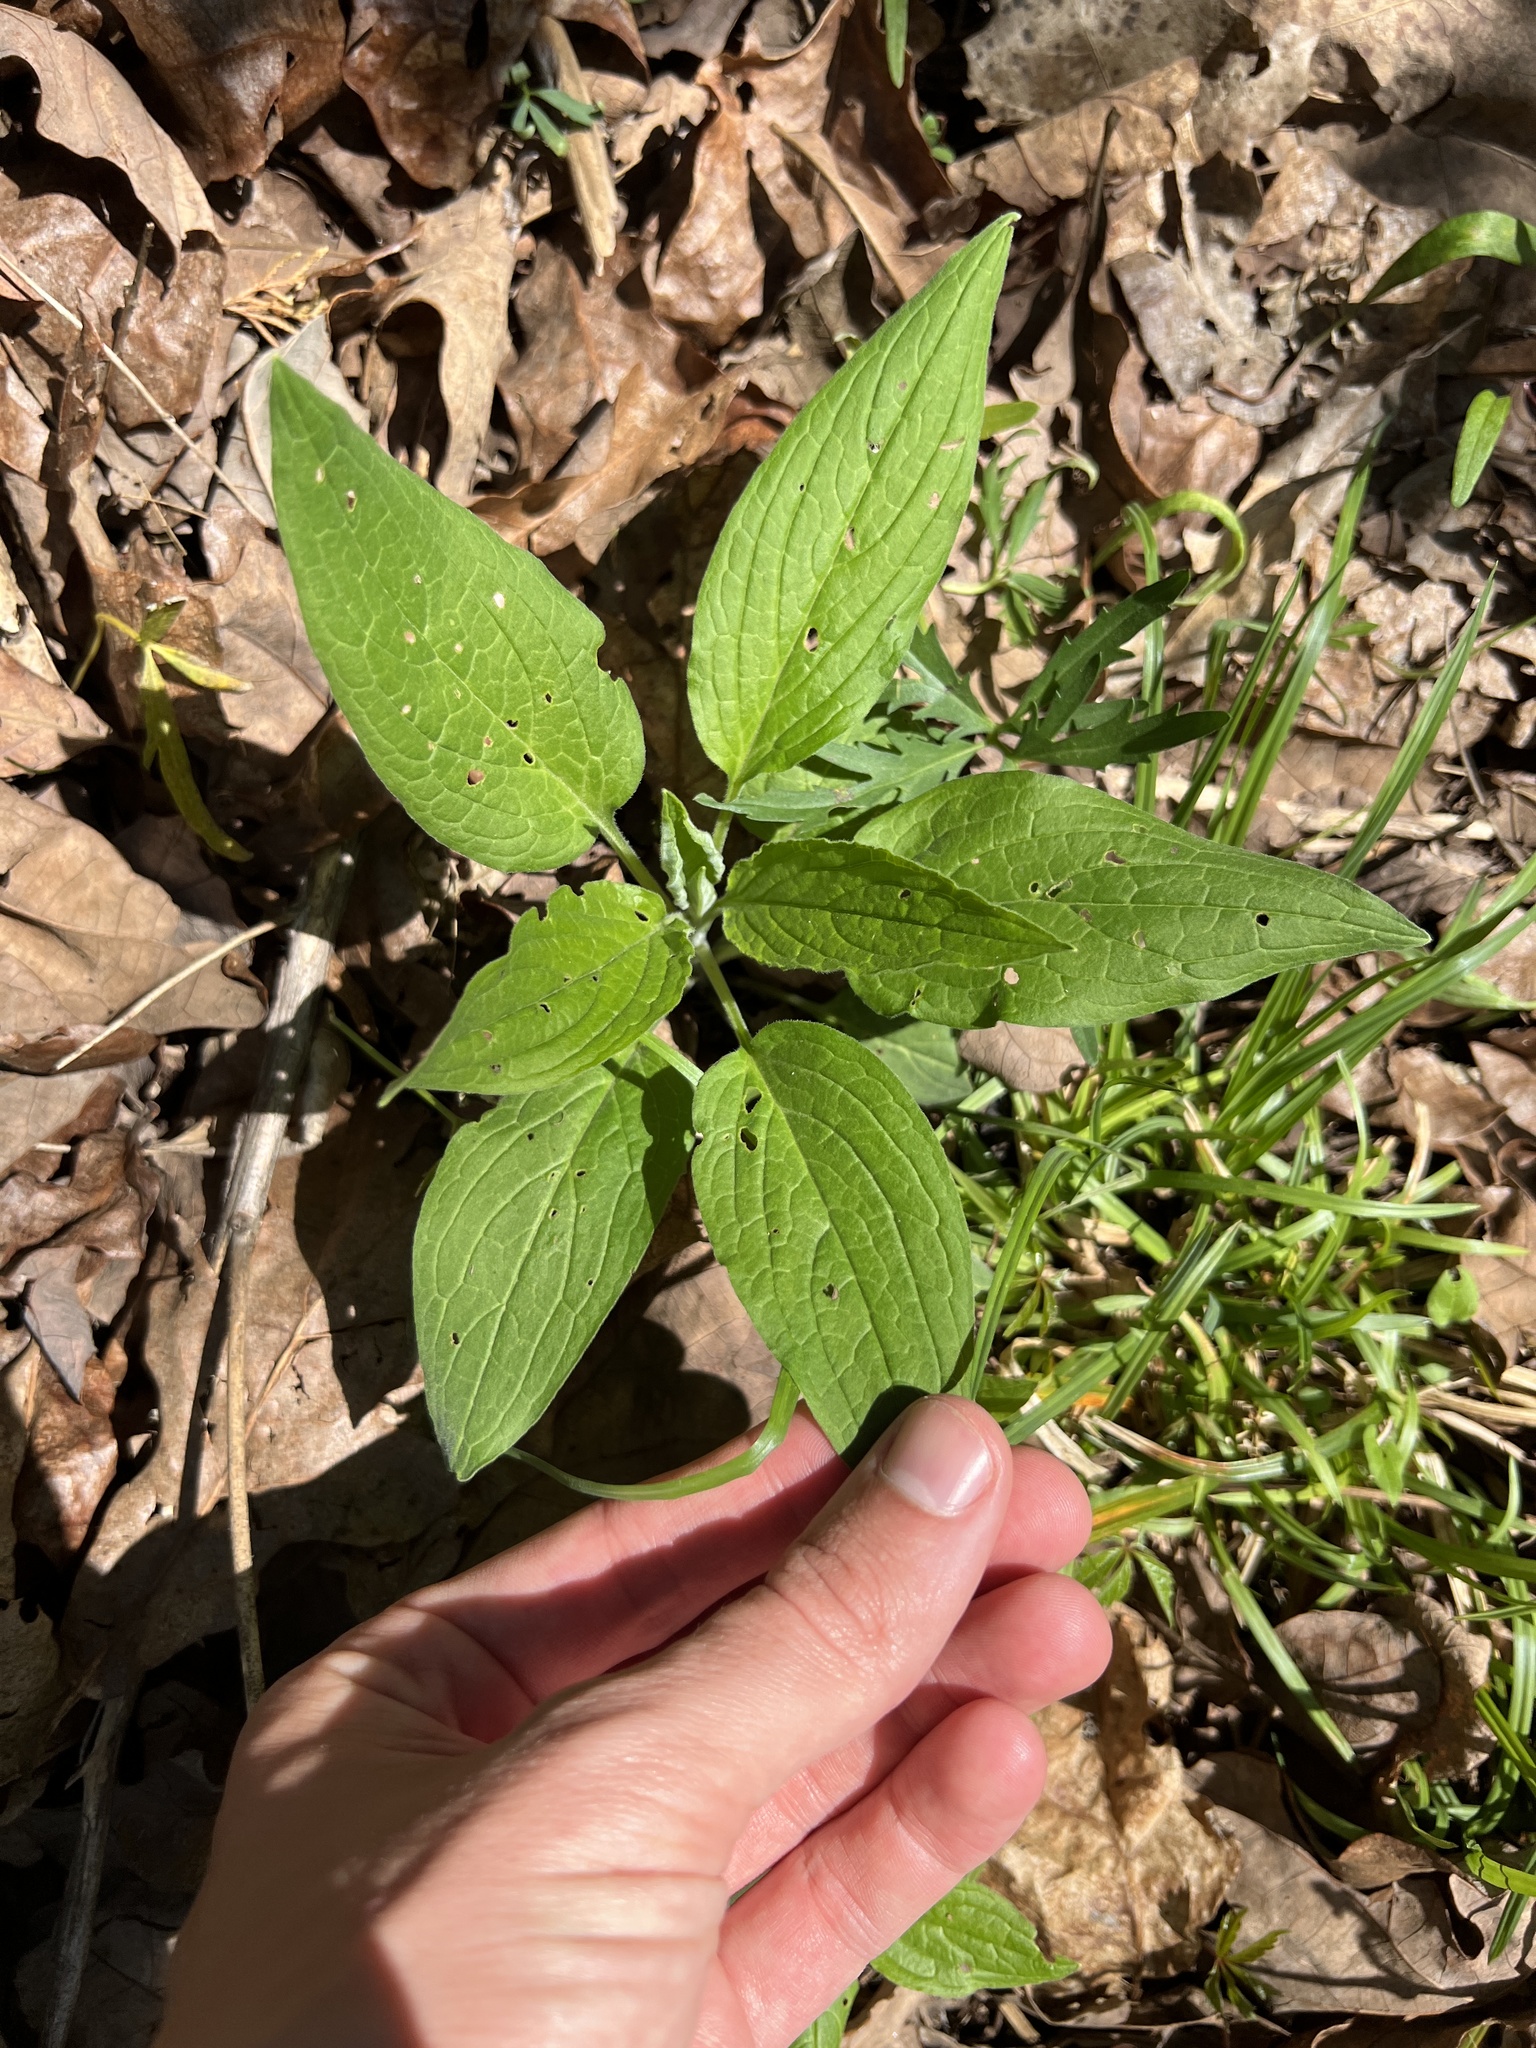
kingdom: Plantae
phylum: Tracheophyta
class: Magnoliopsida
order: Boraginales
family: Boraginaceae
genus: Hackelia
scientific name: Hackelia virginiana
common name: Beggar's-lice
